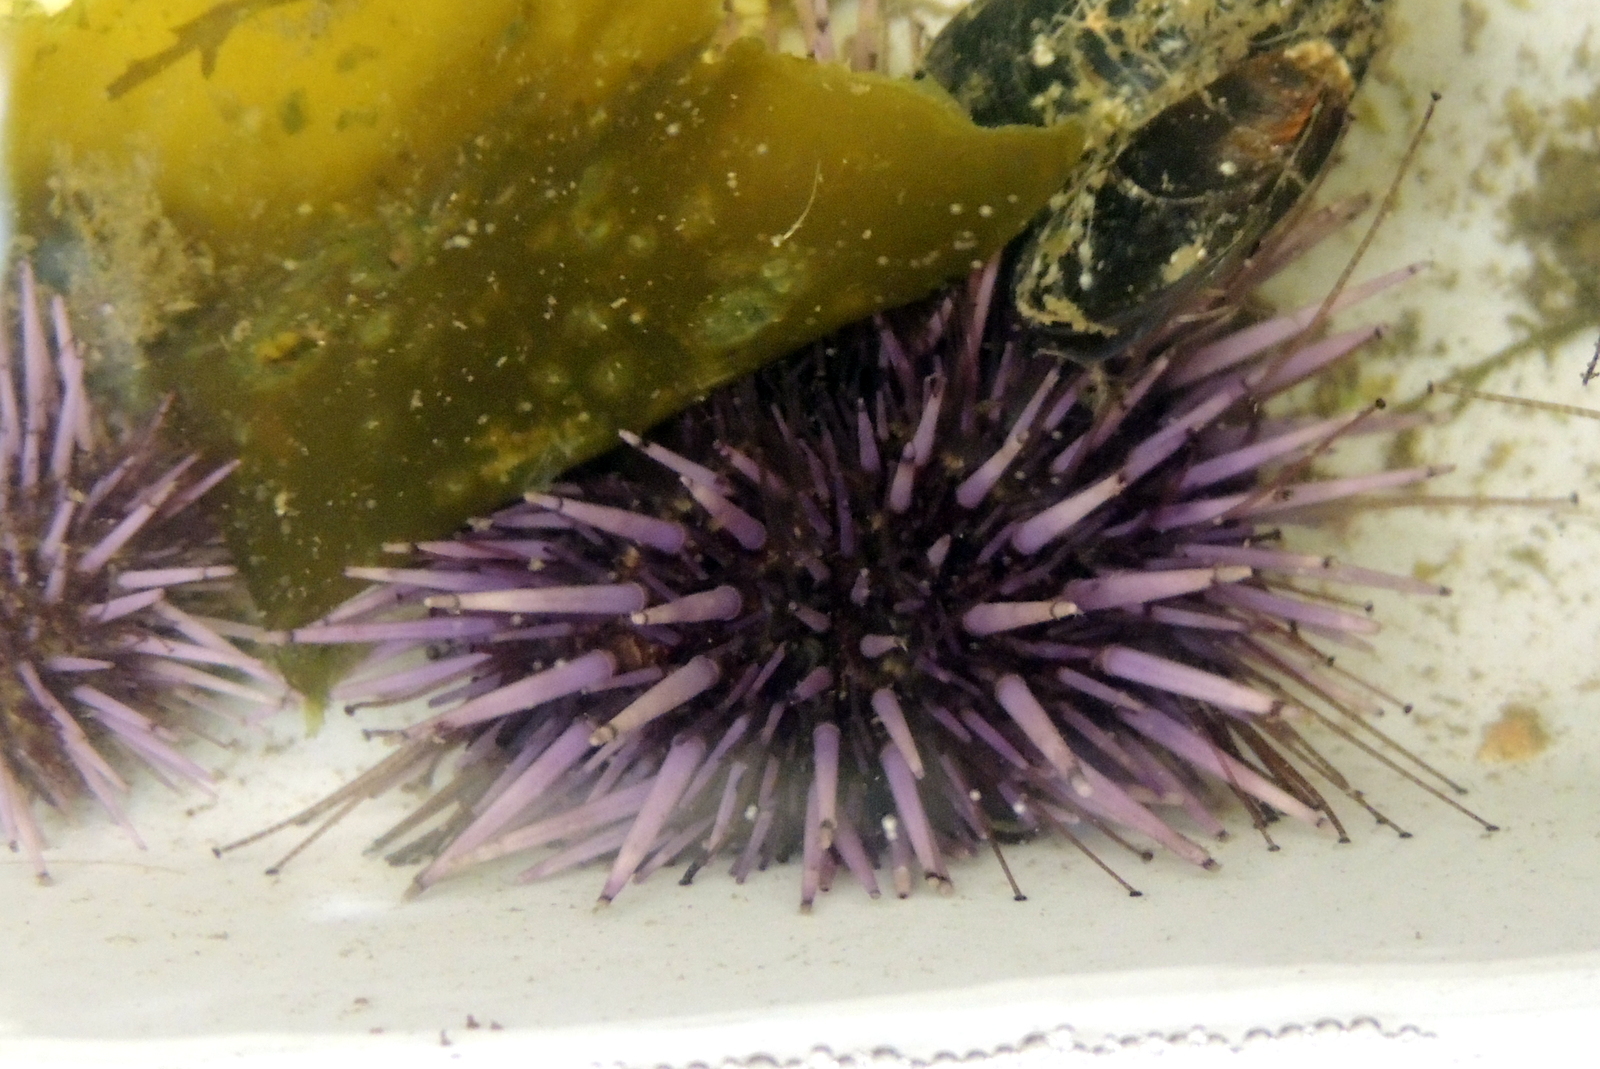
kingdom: Animalia
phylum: Echinodermata
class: Echinoidea
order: Camarodonta
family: Strongylocentrotidae
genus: Strongylocentrotus
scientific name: Strongylocentrotus purpuratus
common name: Purple sea urchin
